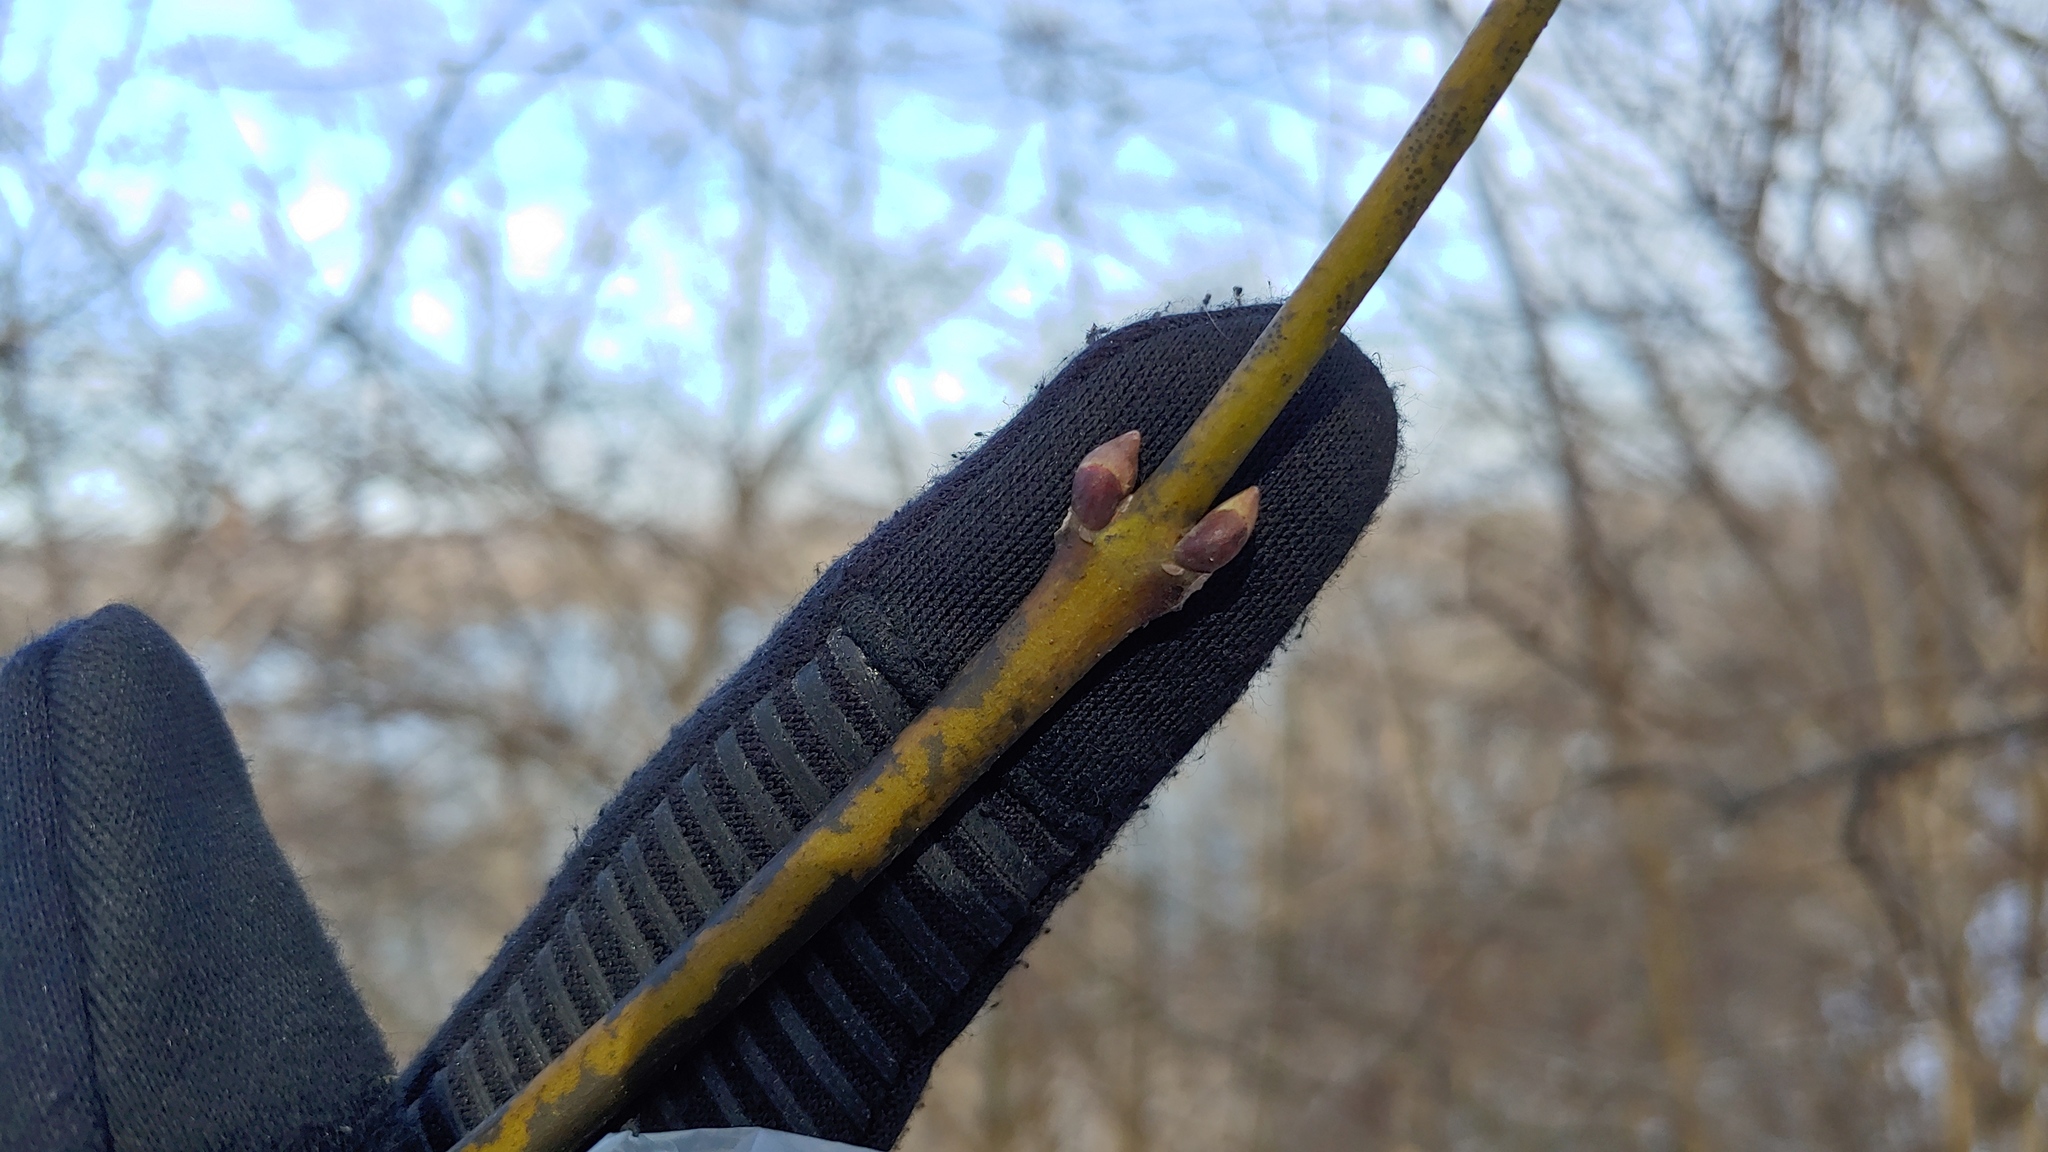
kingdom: Plantae
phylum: Tracheophyta
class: Magnoliopsida
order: Crossosomatales
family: Staphyleaceae
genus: Staphylea
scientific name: Staphylea trifolia
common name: American bladdernut
